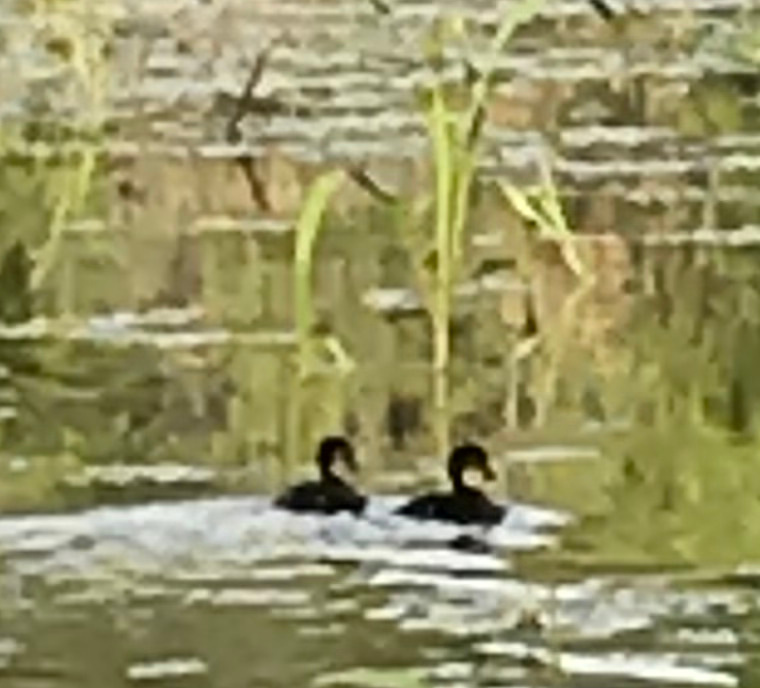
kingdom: Animalia
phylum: Chordata
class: Aves
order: Anseriformes
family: Anatidae
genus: Aix
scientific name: Aix sponsa
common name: Wood duck
